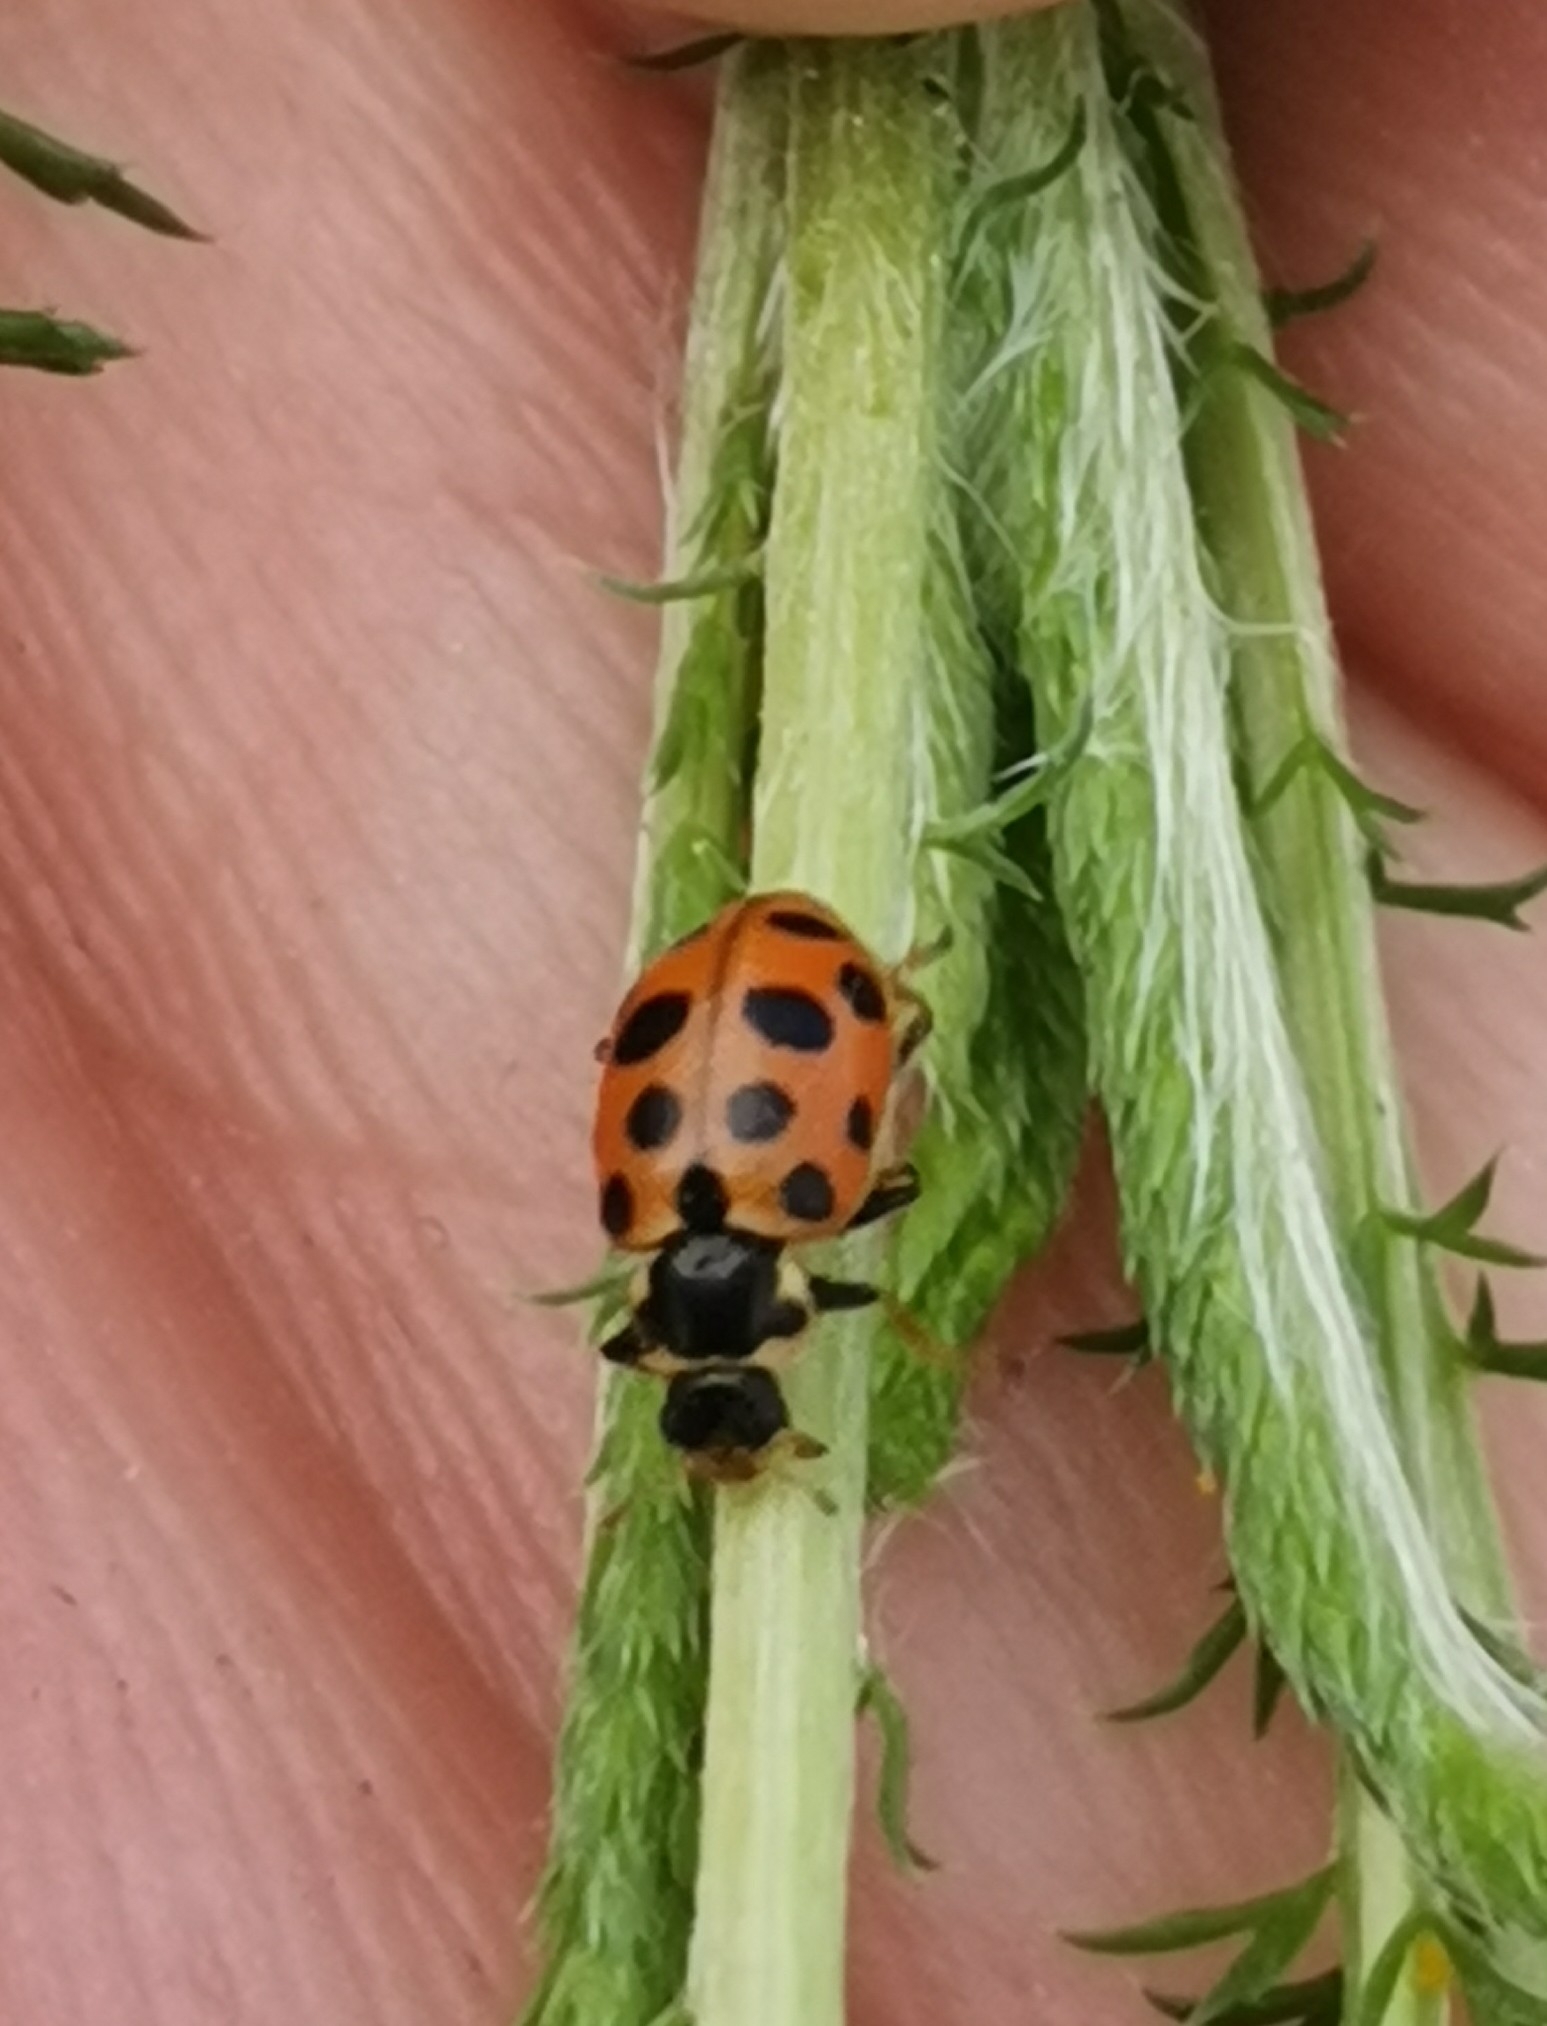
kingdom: Animalia
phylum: Arthropoda
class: Insecta
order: Coleoptera
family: Coccinellidae
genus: Hippodamia
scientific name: Hippodamia tredecimpunctata
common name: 13-spot ladybird
